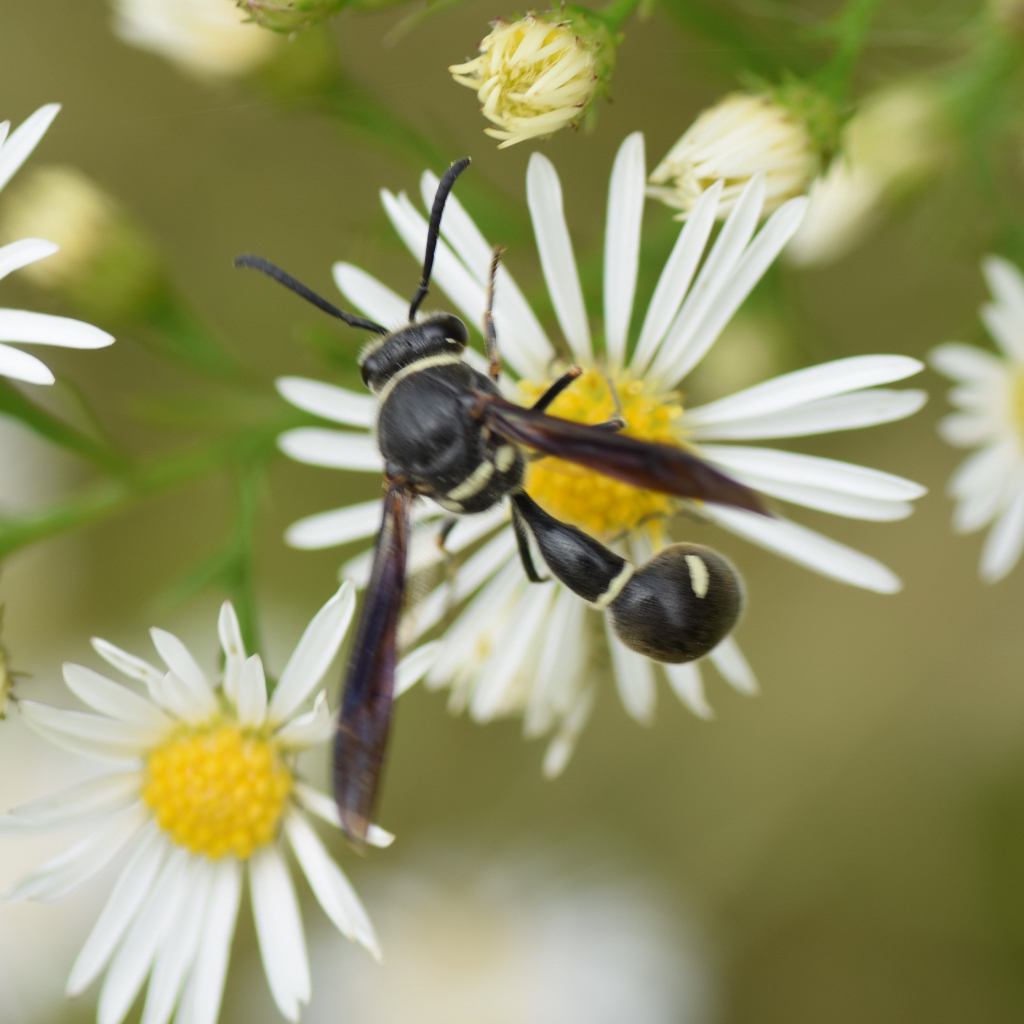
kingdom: Animalia
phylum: Arthropoda
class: Insecta
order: Hymenoptera
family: Vespidae
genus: Eumenes
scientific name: Eumenes fraternus
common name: Fraternal potter wasp
